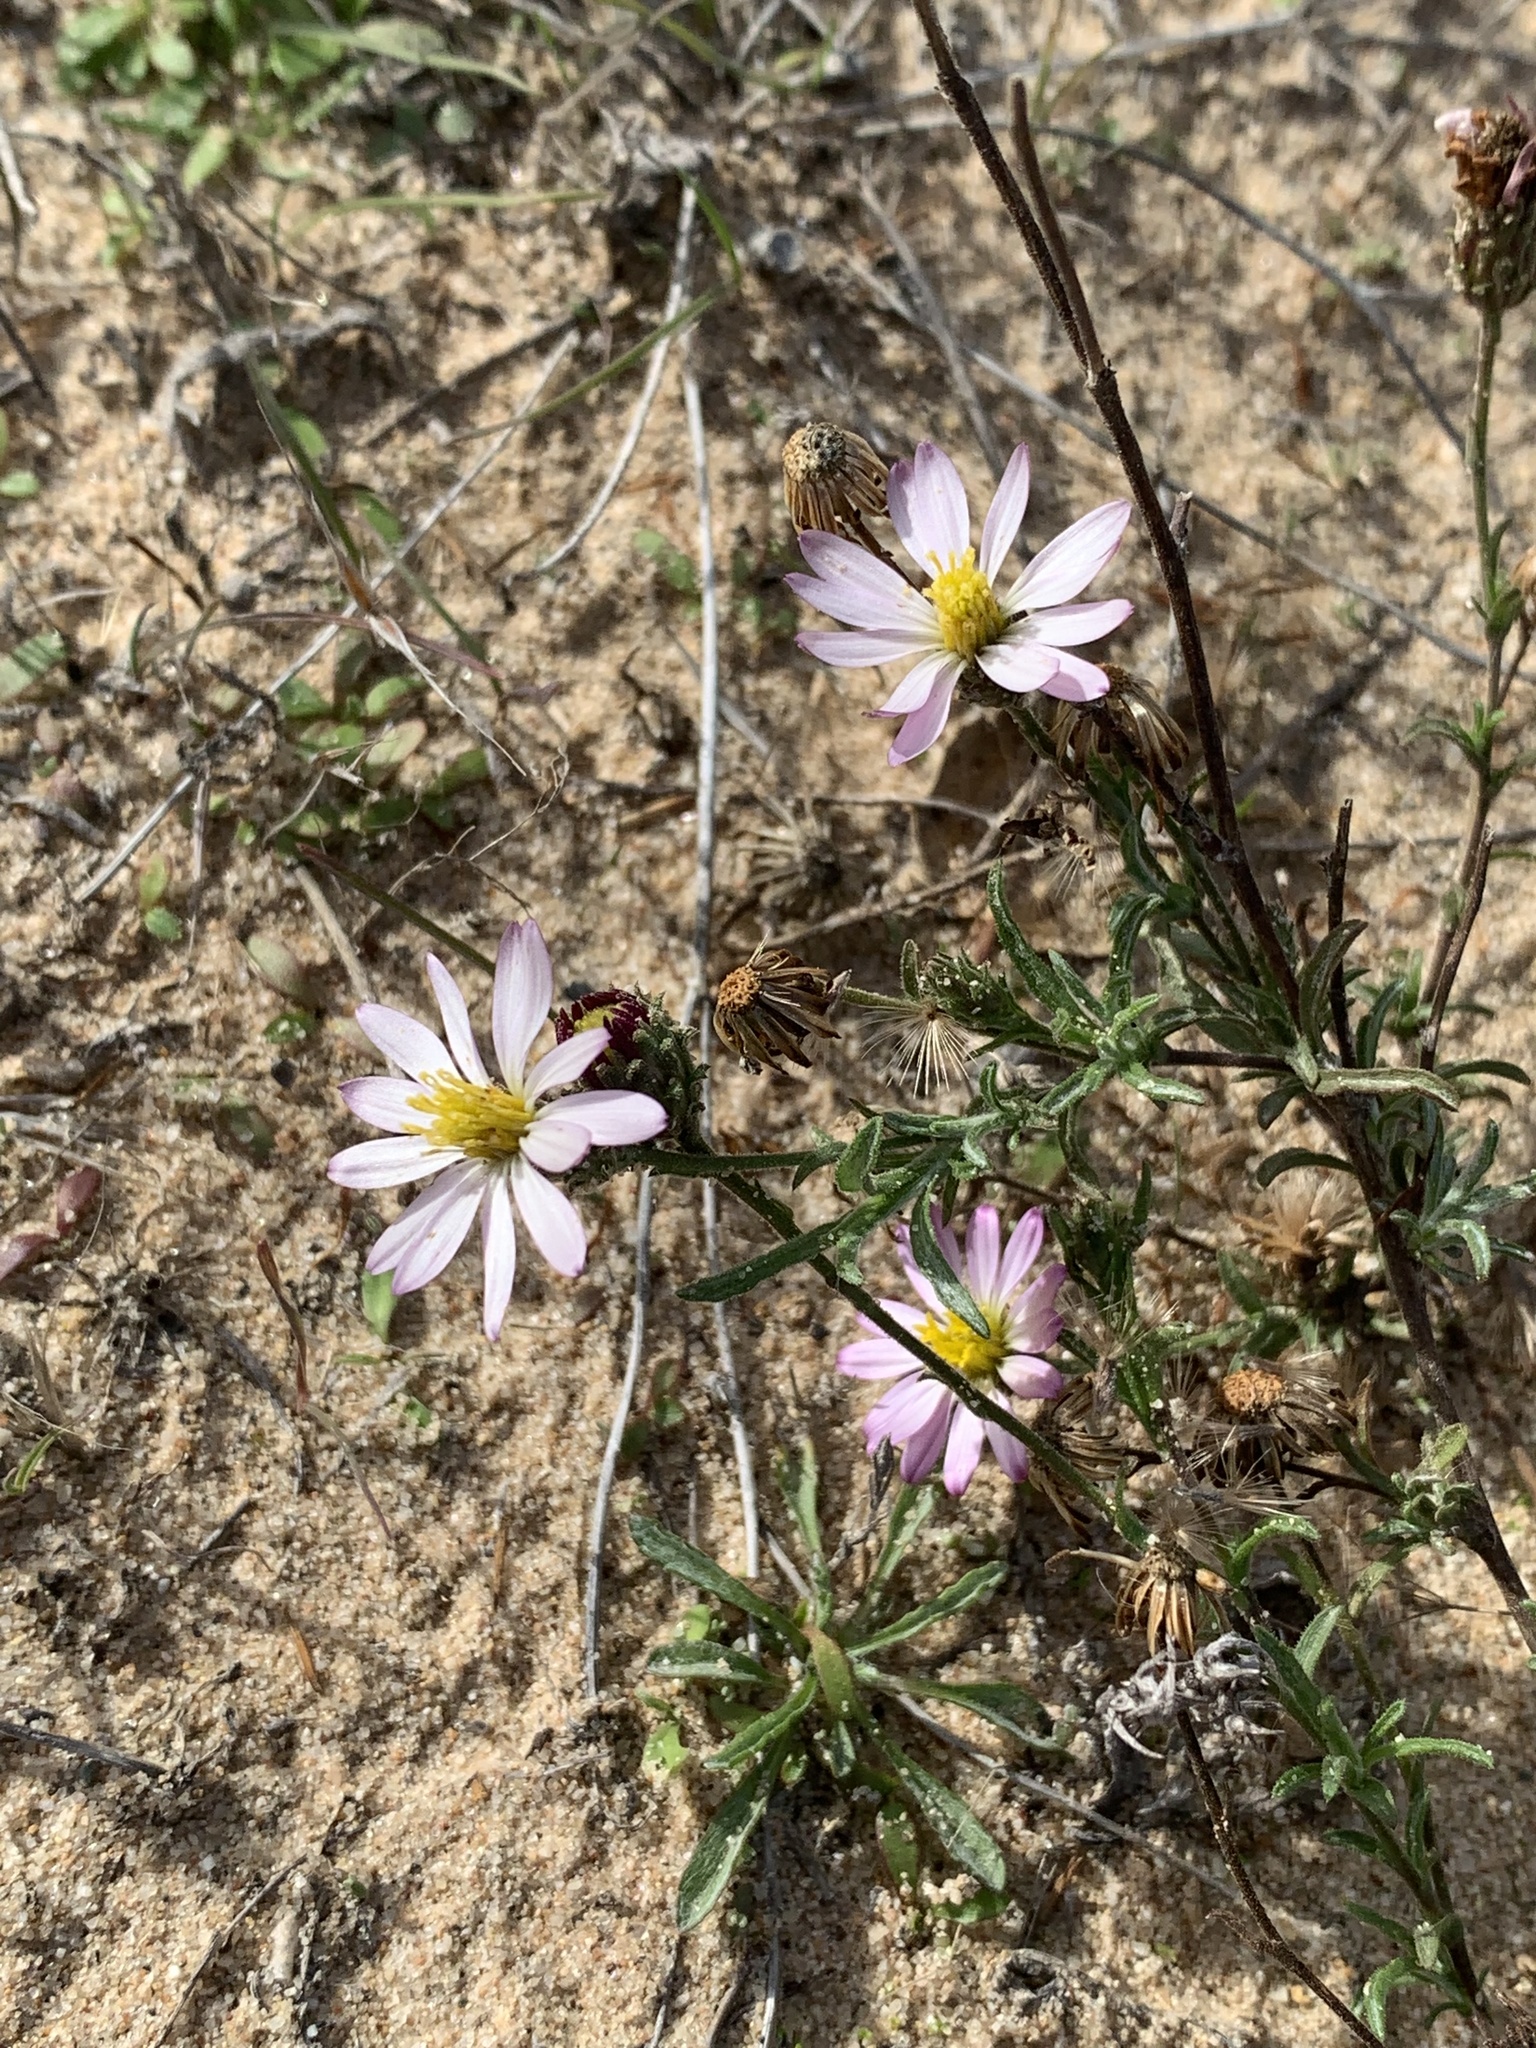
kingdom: Plantae
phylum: Tracheophyta
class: Magnoliopsida
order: Asterales
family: Asteraceae
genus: Corethrogyne
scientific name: Corethrogyne filaginifolia
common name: Sand-aster
